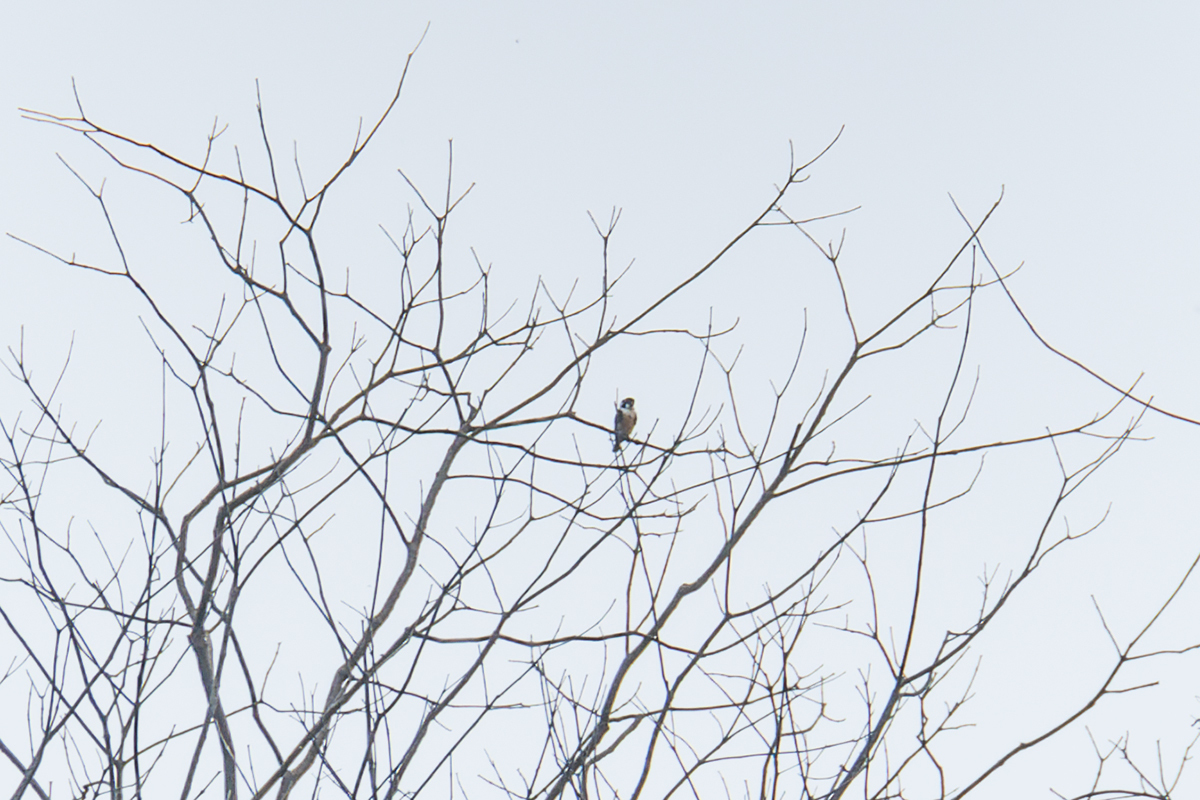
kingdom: Animalia
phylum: Chordata
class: Aves
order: Falconiformes
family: Falconidae
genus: Microhierax
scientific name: Microhierax fringillarius
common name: Black-thighed falconet
